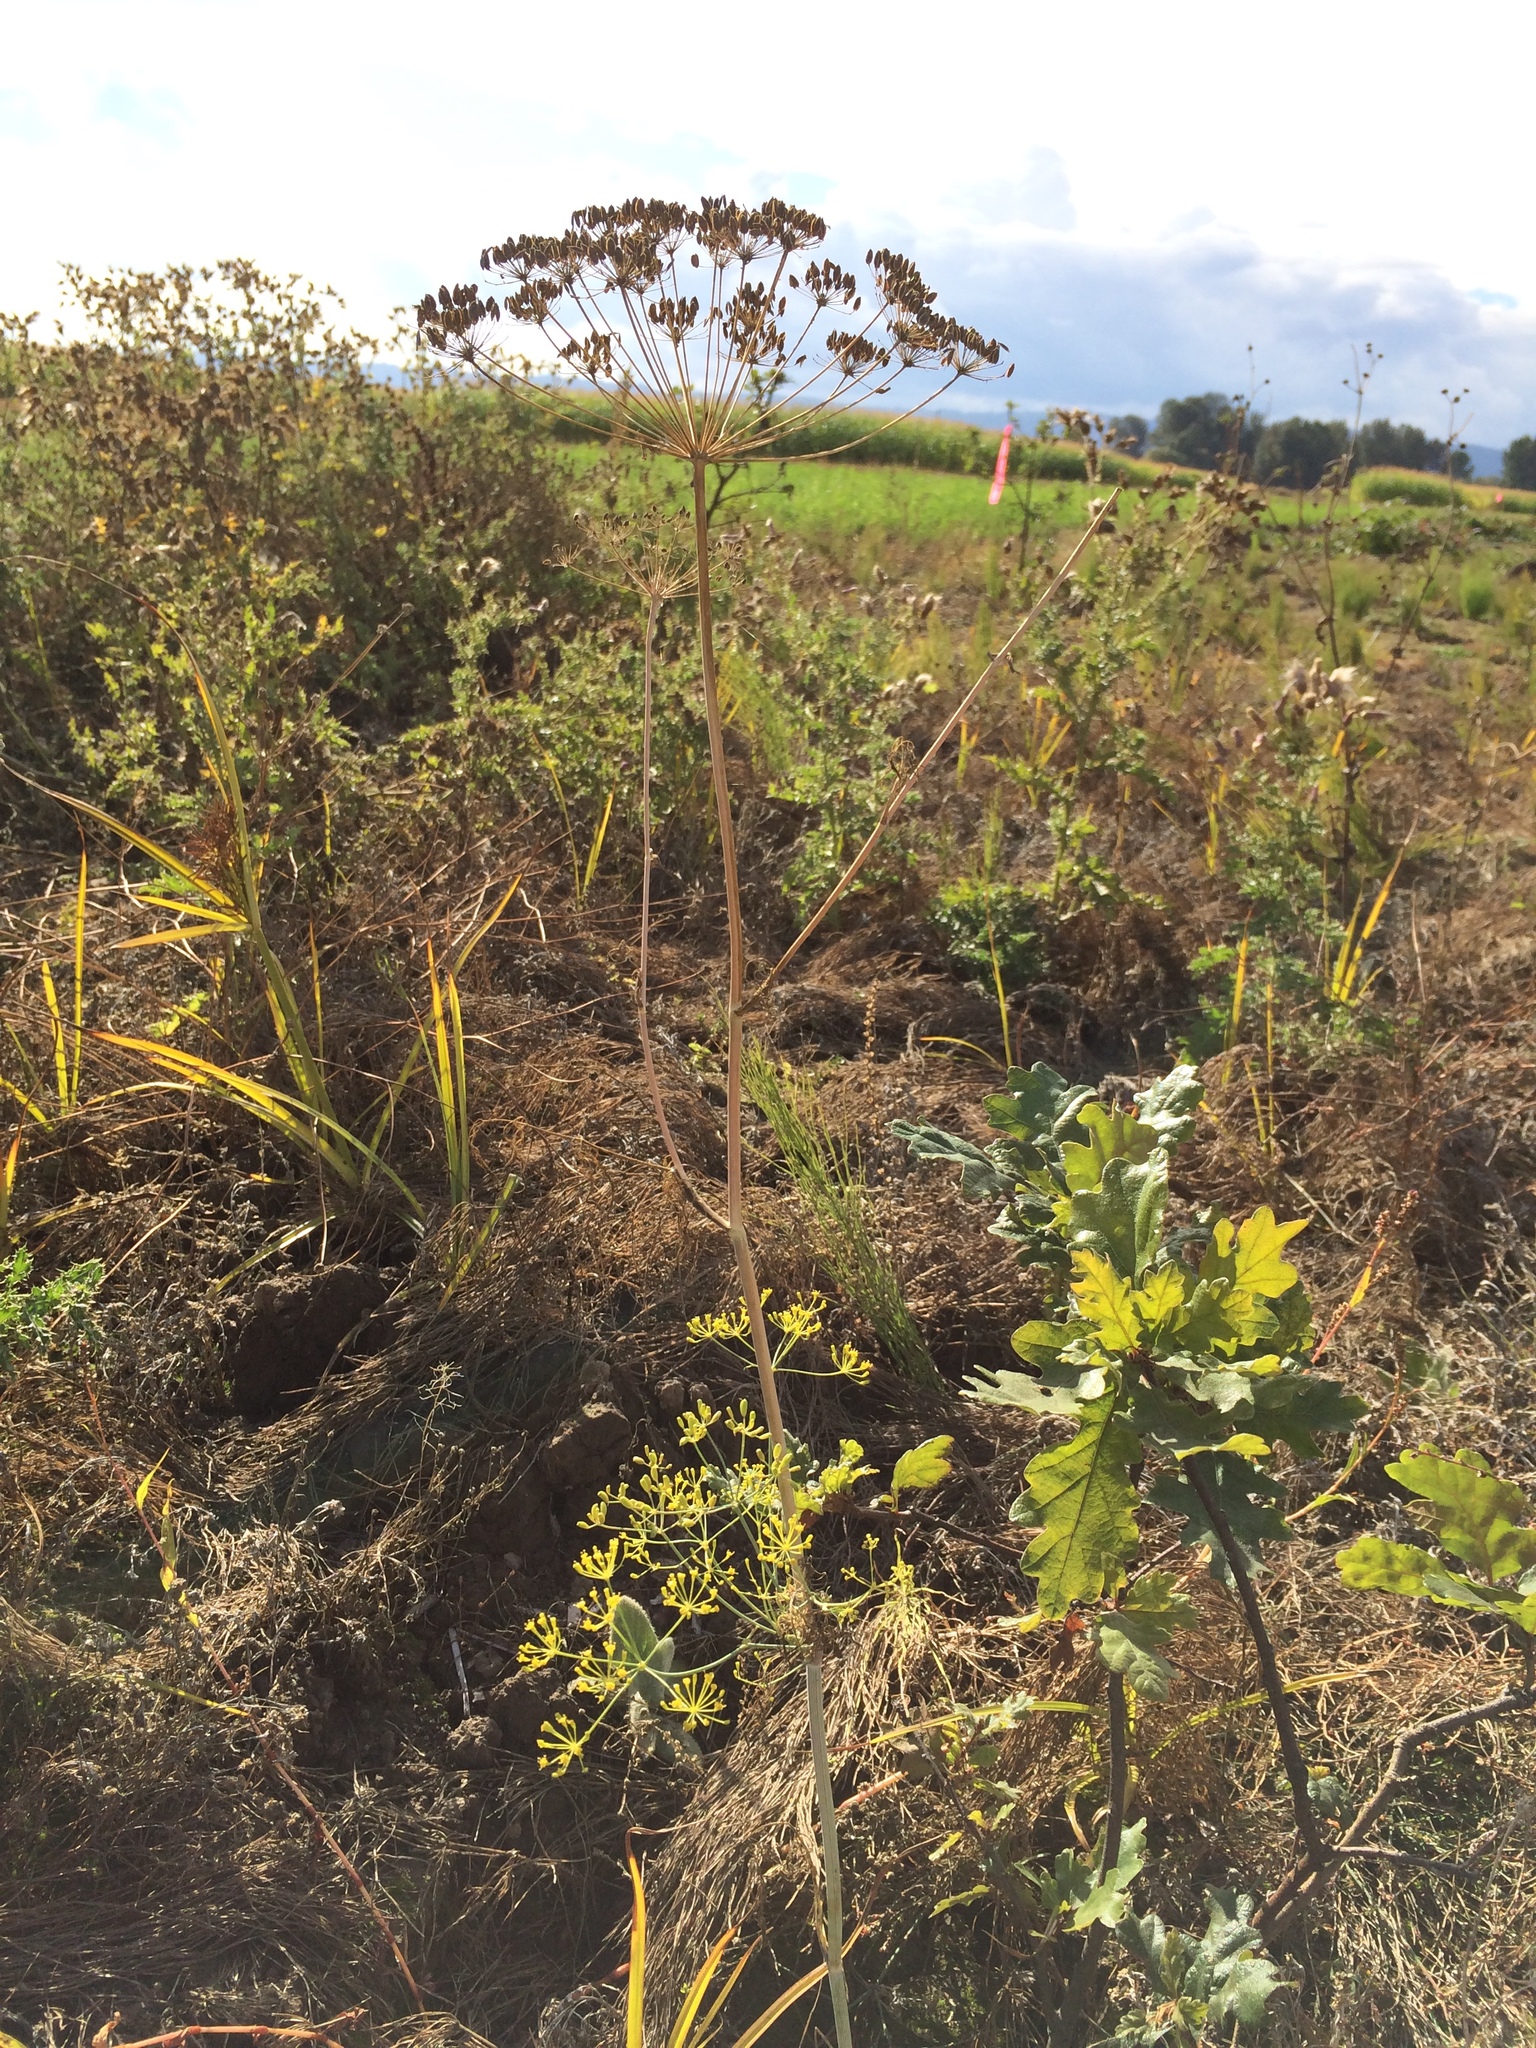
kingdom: Plantae
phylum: Tracheophyta
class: Magnoliopsida
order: Apiales
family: Apiaceae
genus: Foeniculum
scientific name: Foeniculum vulgare
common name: Fennel
